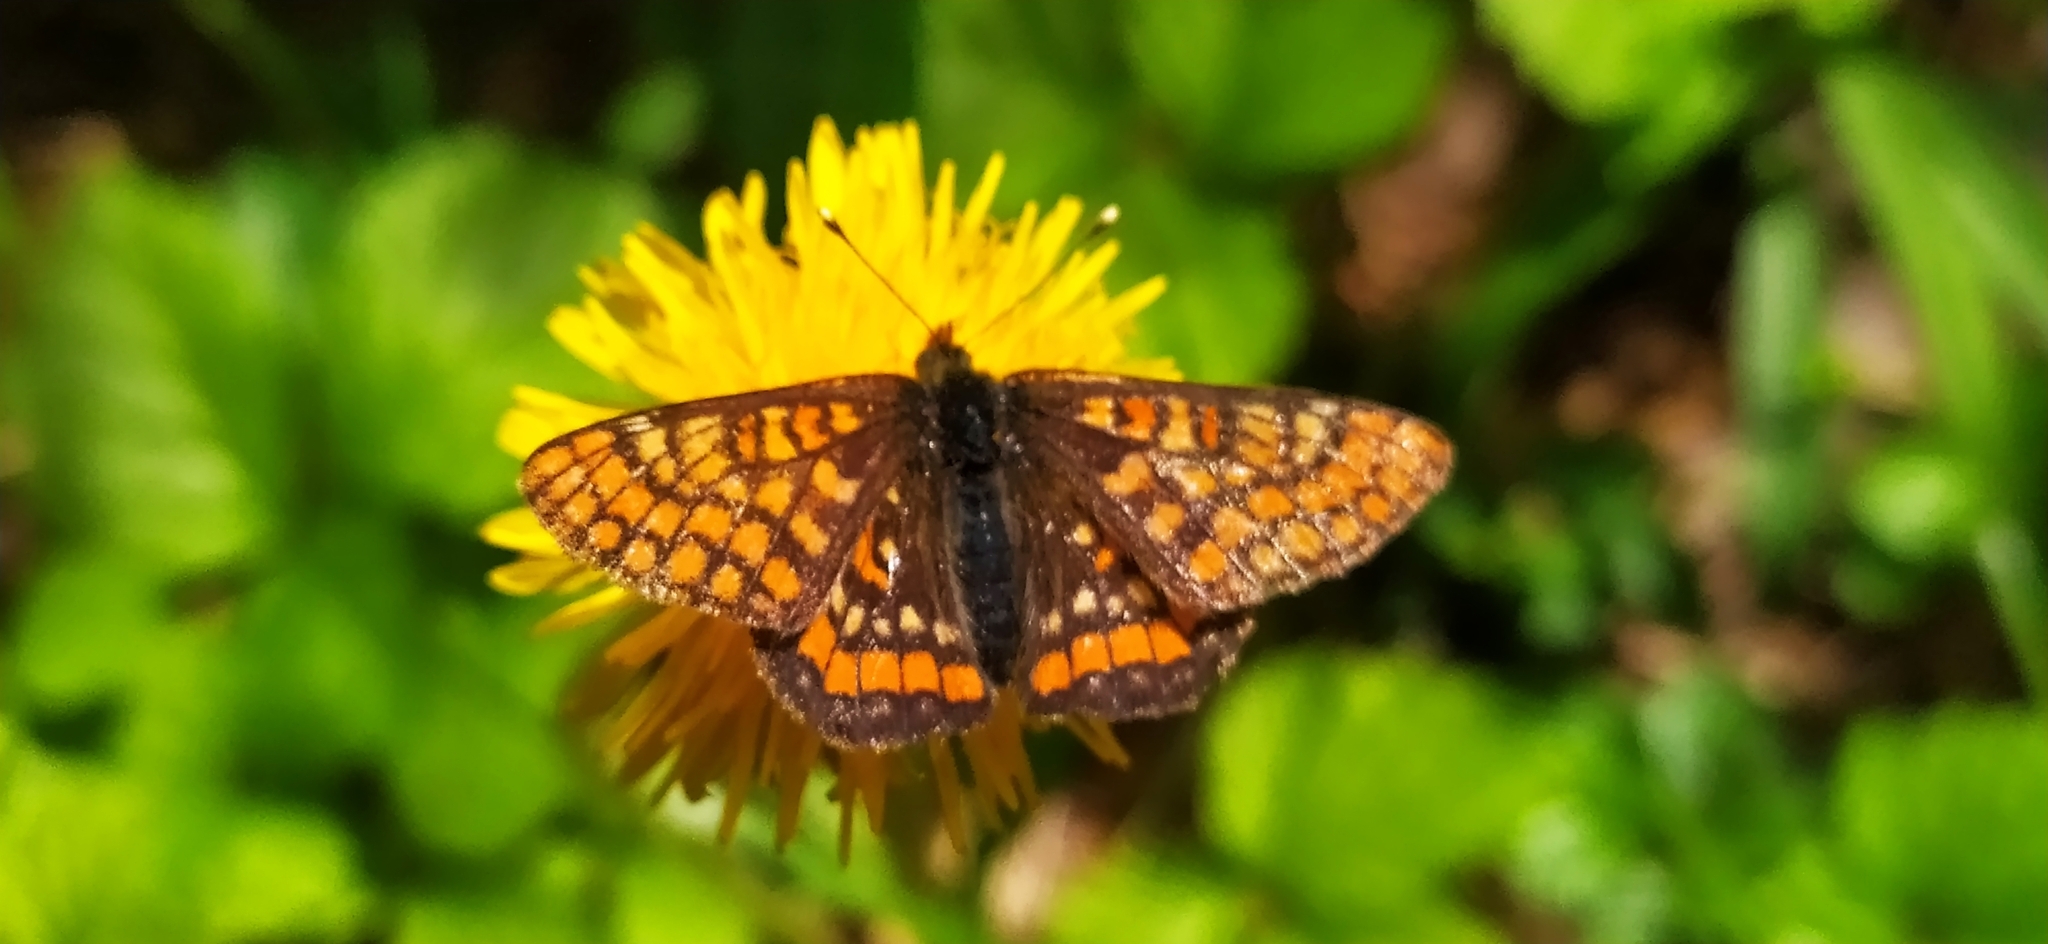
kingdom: Animalia
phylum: Arthropoda
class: Insecta
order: Lepidoptera
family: Nymphalidae
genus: Euphydryas
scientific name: Euphydryas maturna
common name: Scarce fritillary
